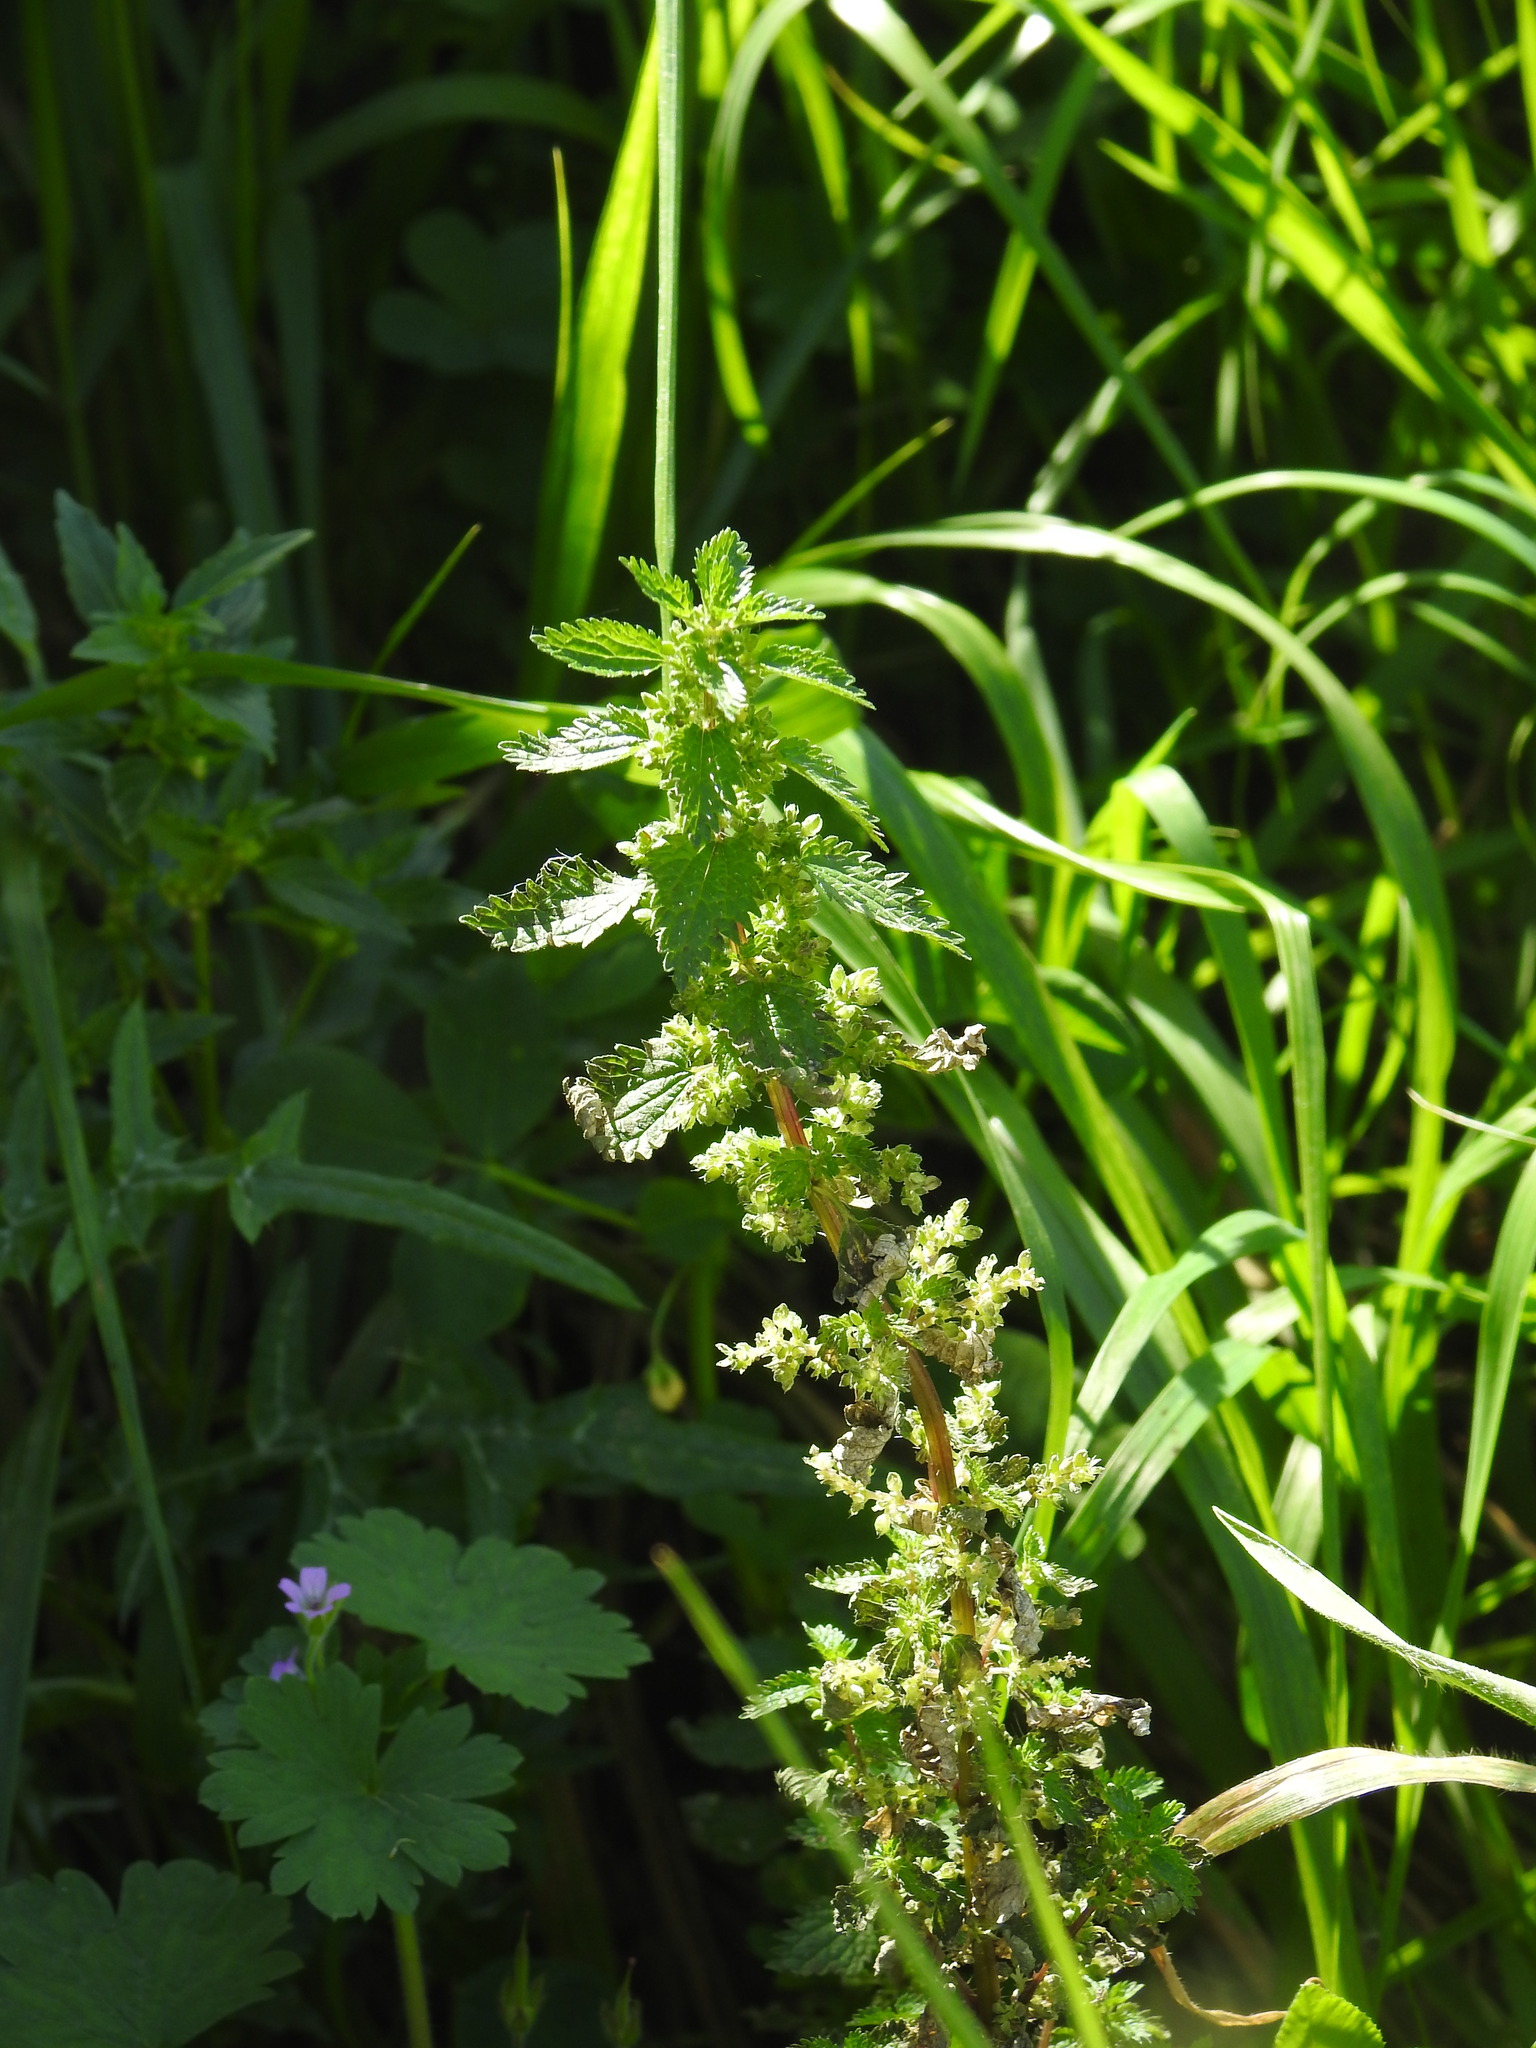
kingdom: Plantae
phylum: Tracheophyta
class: Magnoliopsida
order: Rosales
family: Urticaceae
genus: Urtica
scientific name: Urtica urens
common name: Dwarf nettle
